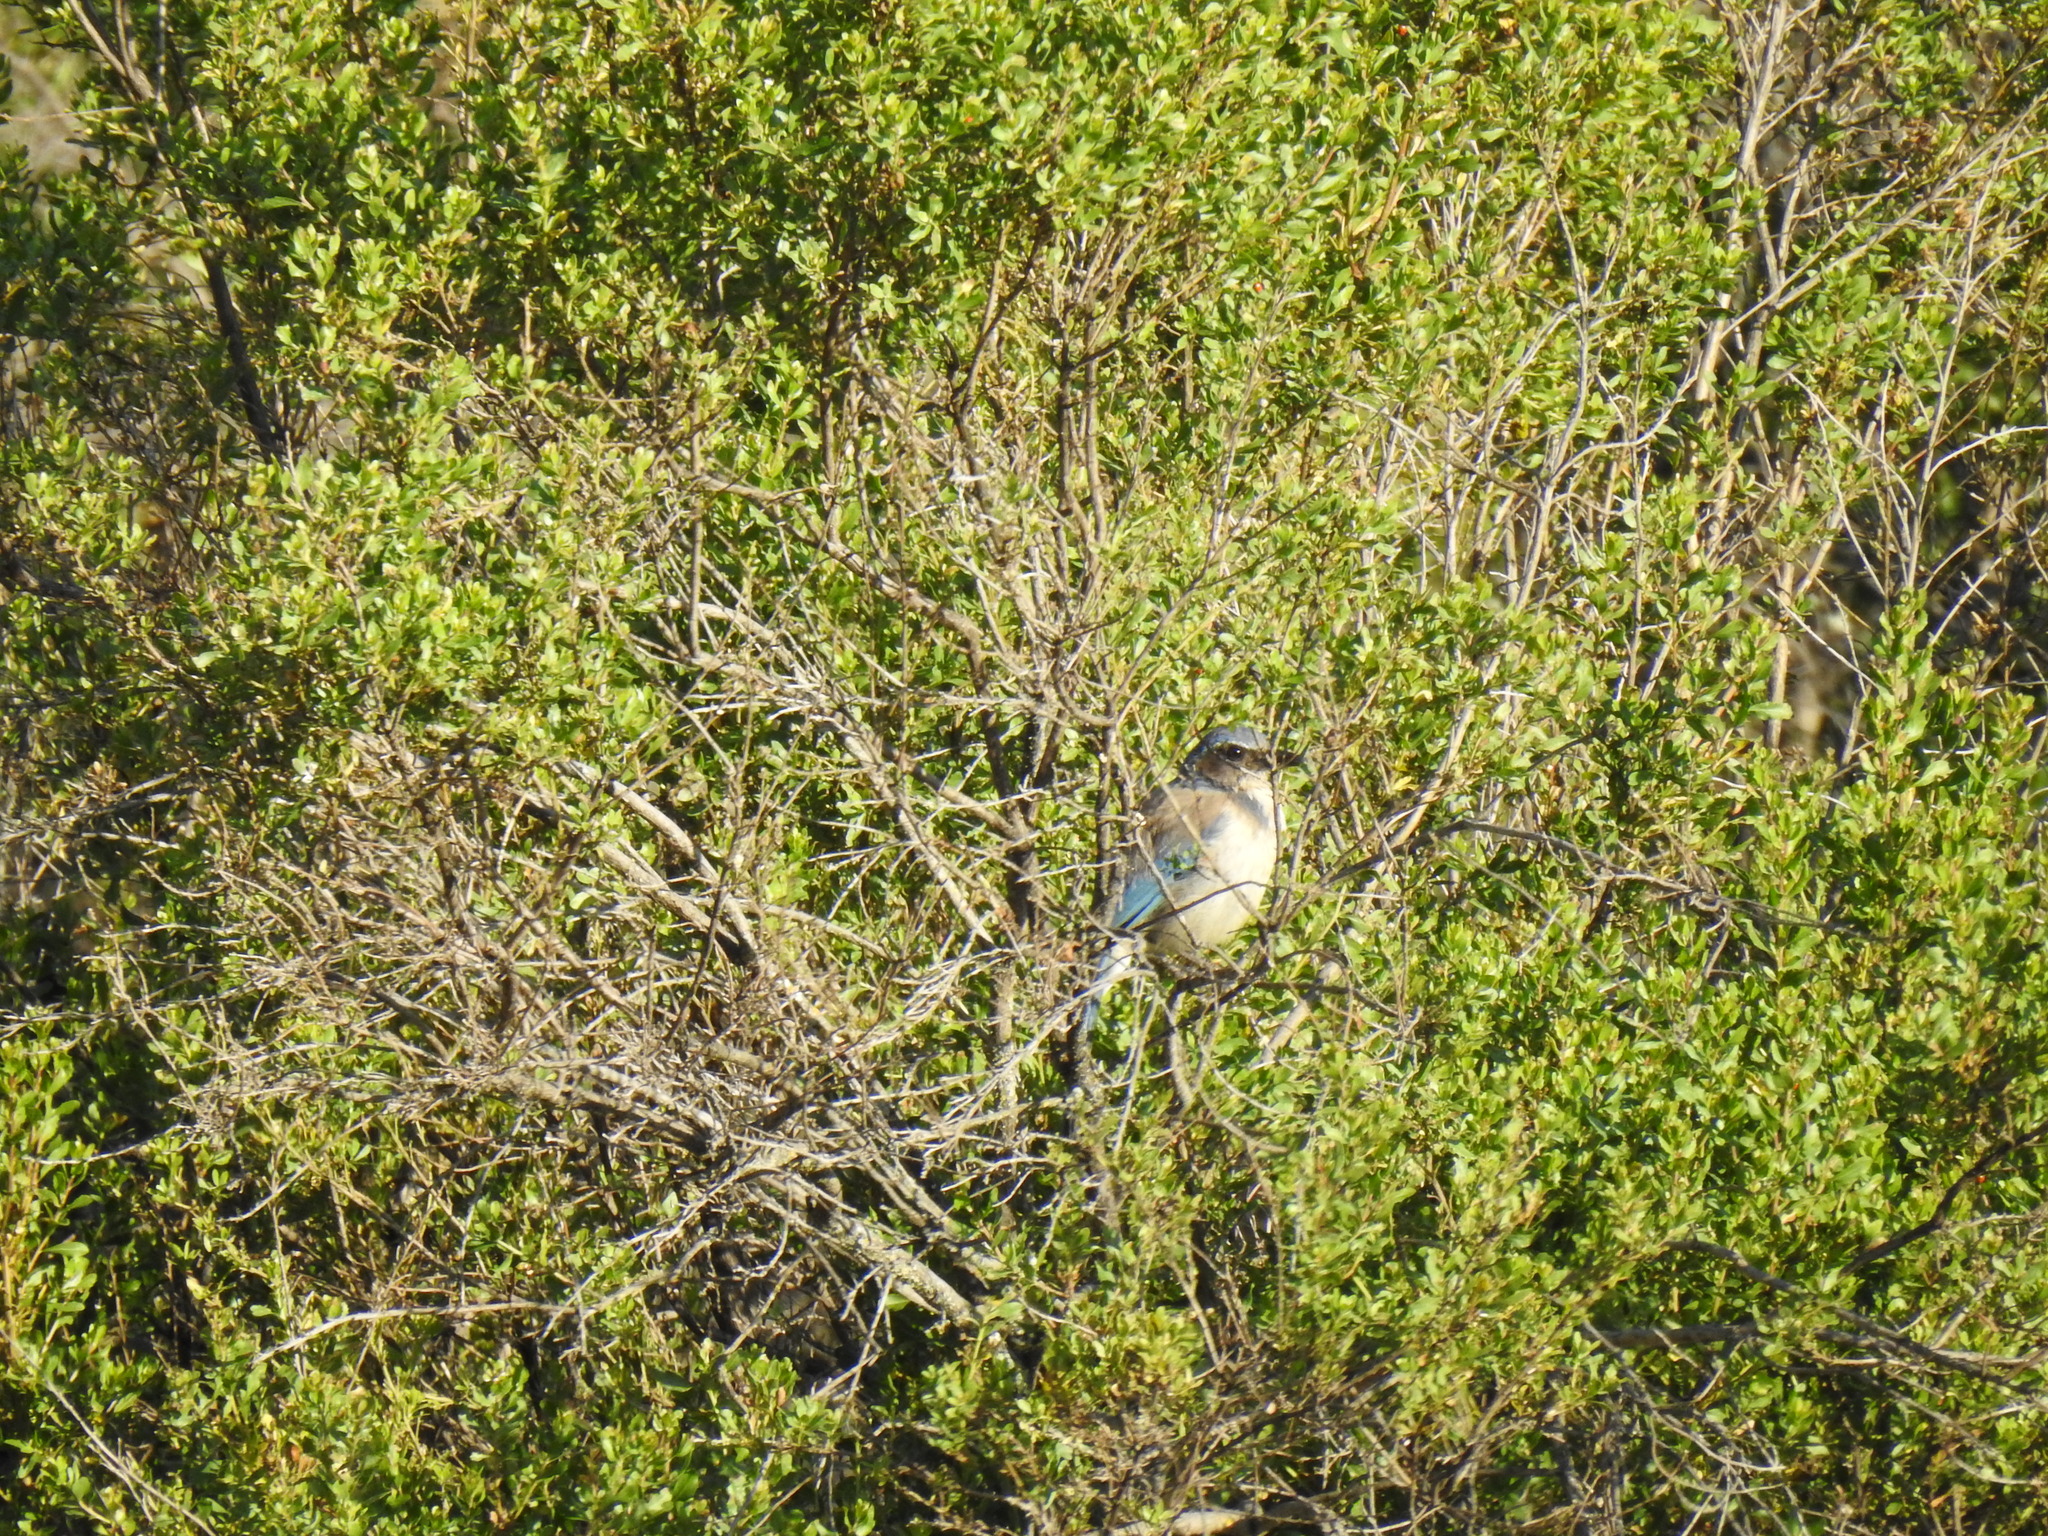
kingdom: Animalia
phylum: Chordata
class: Aves
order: Passeriformes
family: Corvidae
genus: Aphelocoma
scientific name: Aphelocoma californica
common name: California scrub-jay
